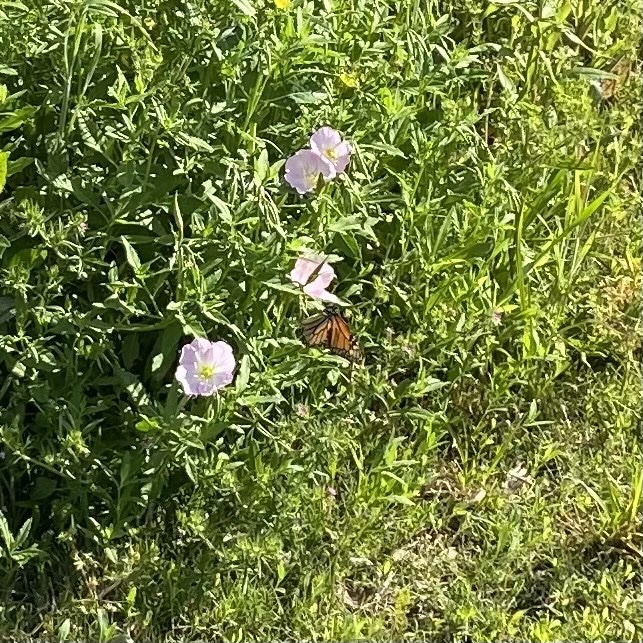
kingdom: Animalia
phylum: Arthropoda
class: Insecta
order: Lepidoptera
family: Nymphalidae
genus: Danaus
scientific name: Danaus plexippus
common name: Monarch
